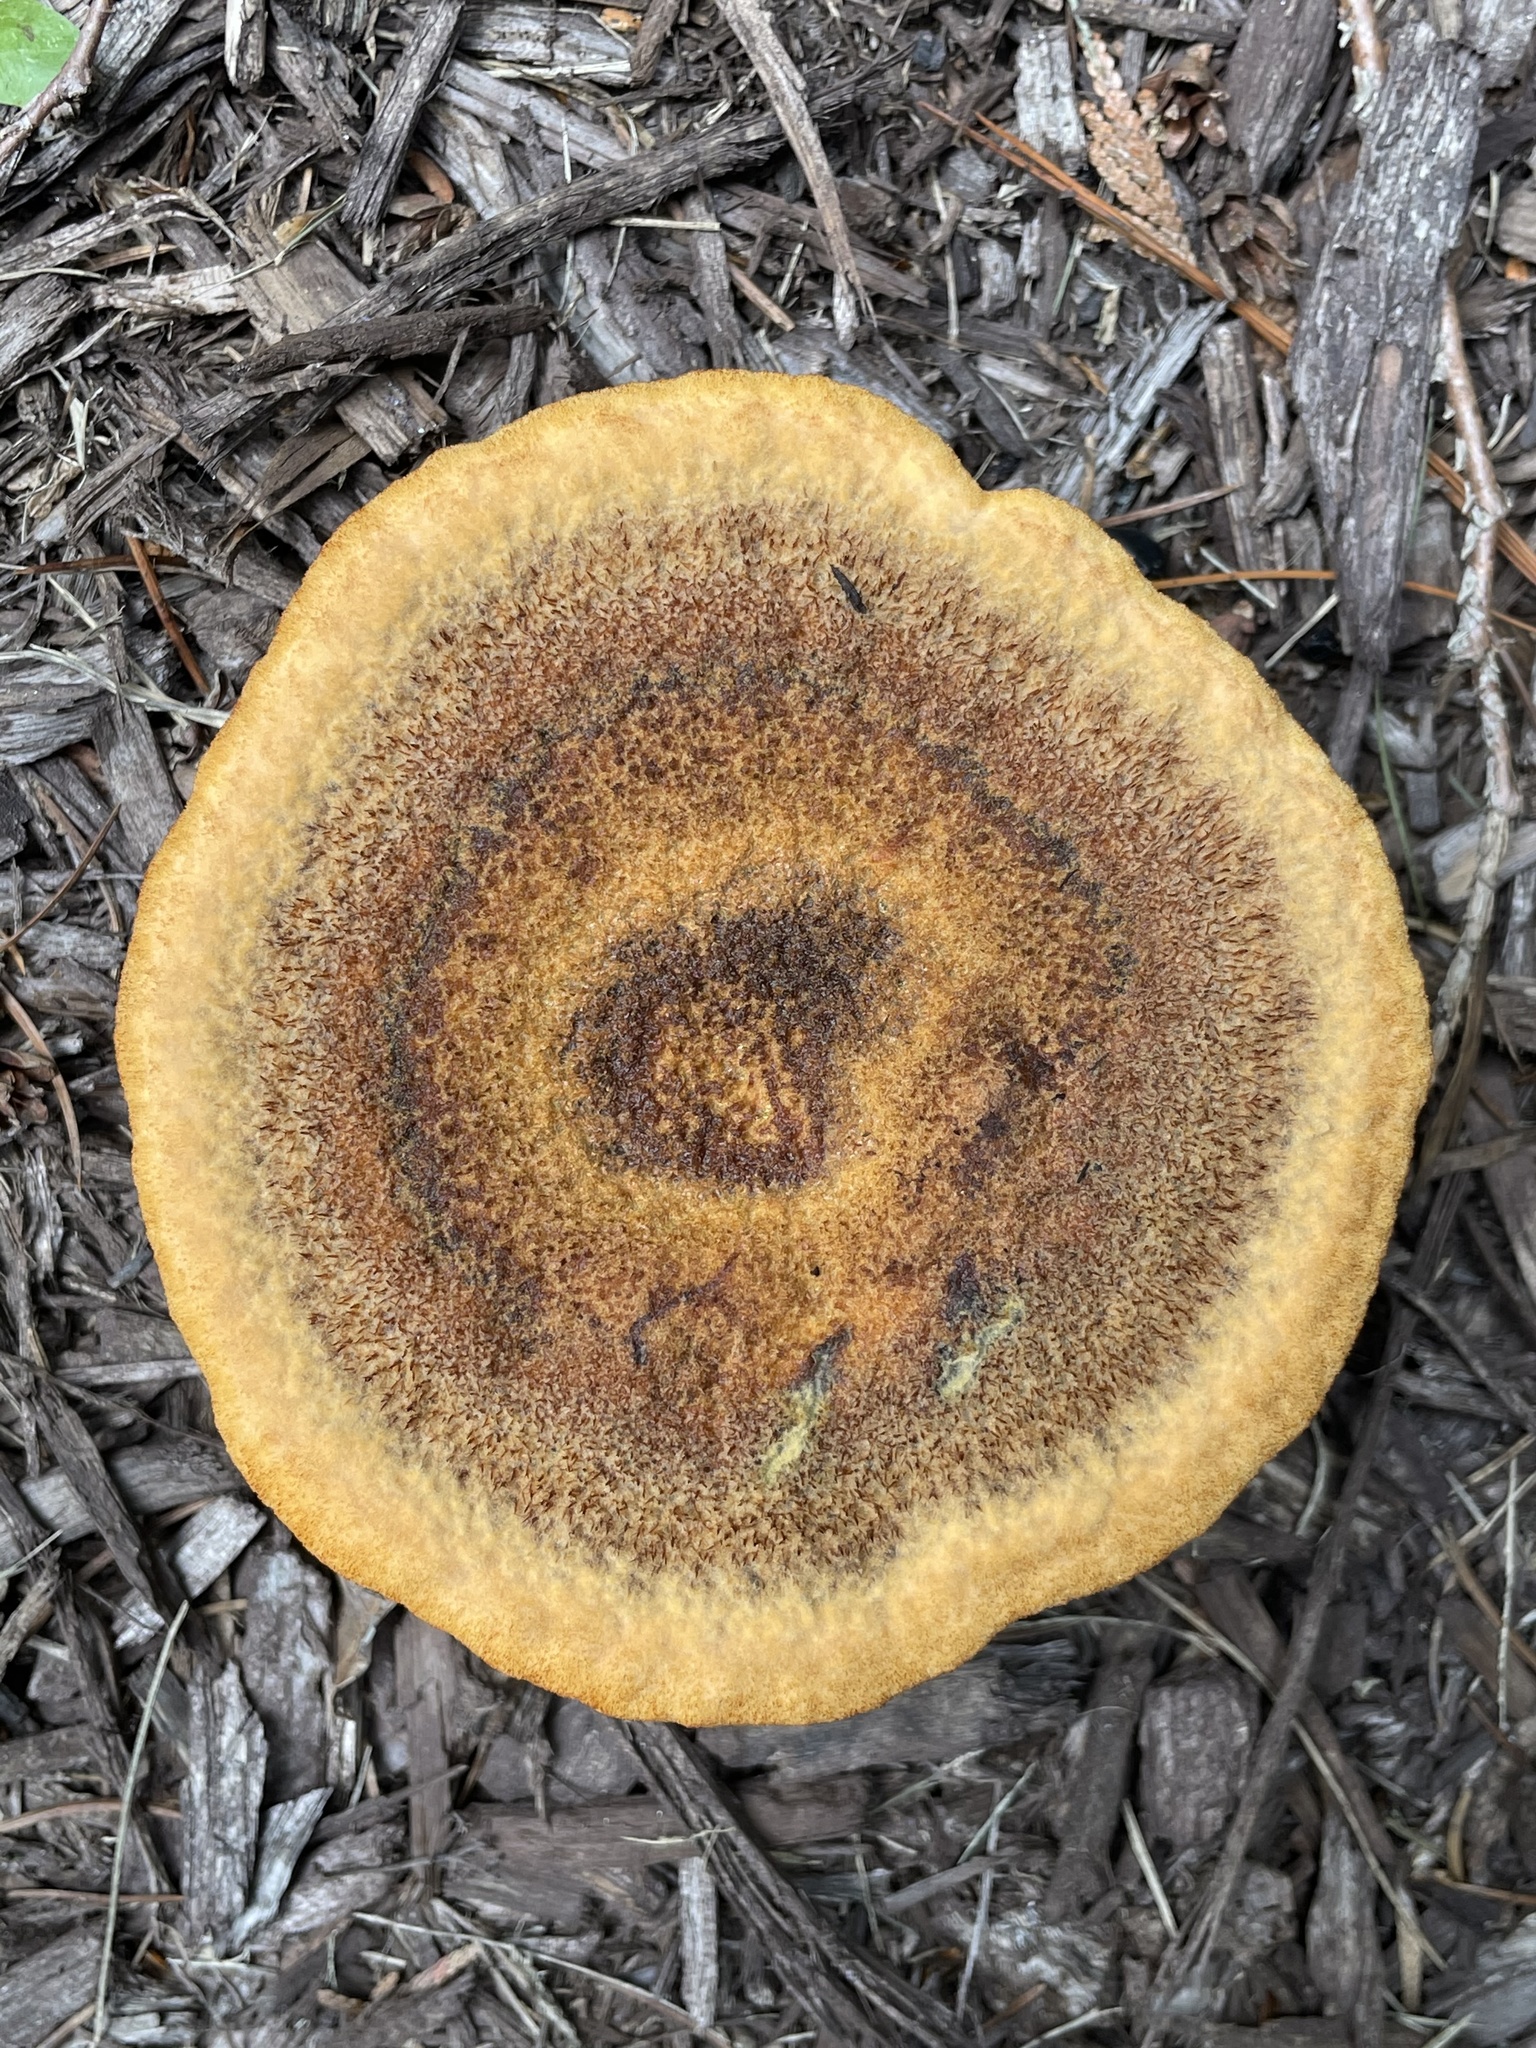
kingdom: Fungi
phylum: Basidiomycota
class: Agaricomycetes
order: Polyporales
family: Laetiporaceae
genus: Phaeolus
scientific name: Phaeolus schweinitzii
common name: Dyer's mazegill
